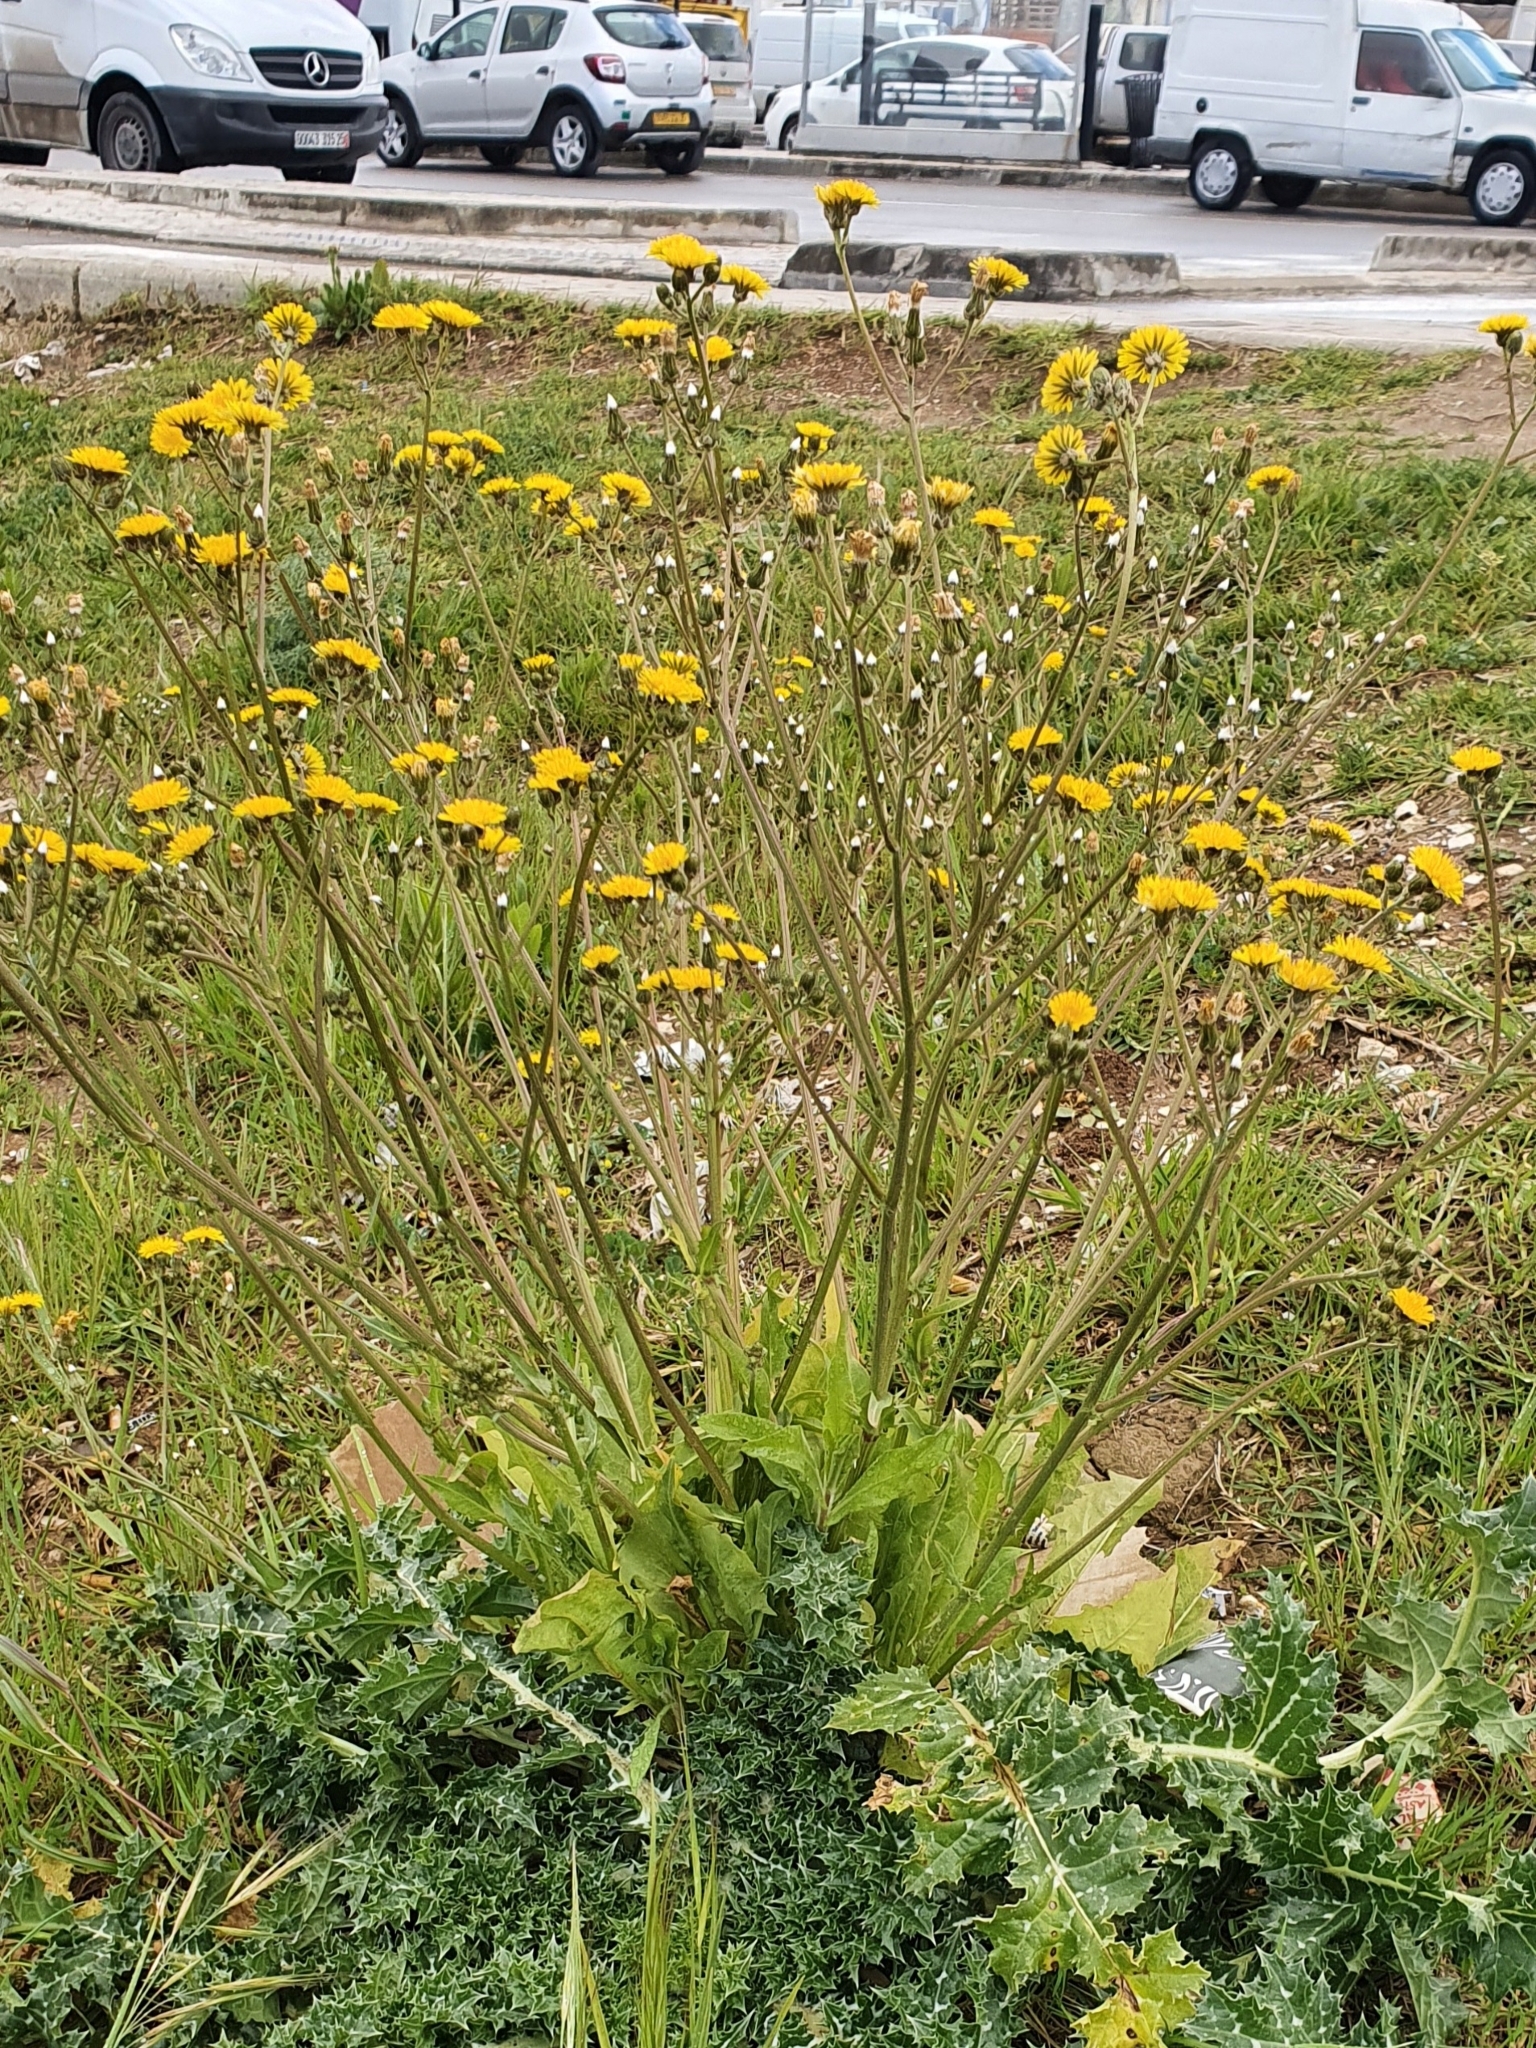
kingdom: Plantae
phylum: Tracheophyta
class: Magnoliopsida
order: Asterales
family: Asteraceae
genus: Crepis
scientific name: Crepis vesicaria
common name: Beaked hawksbeard
